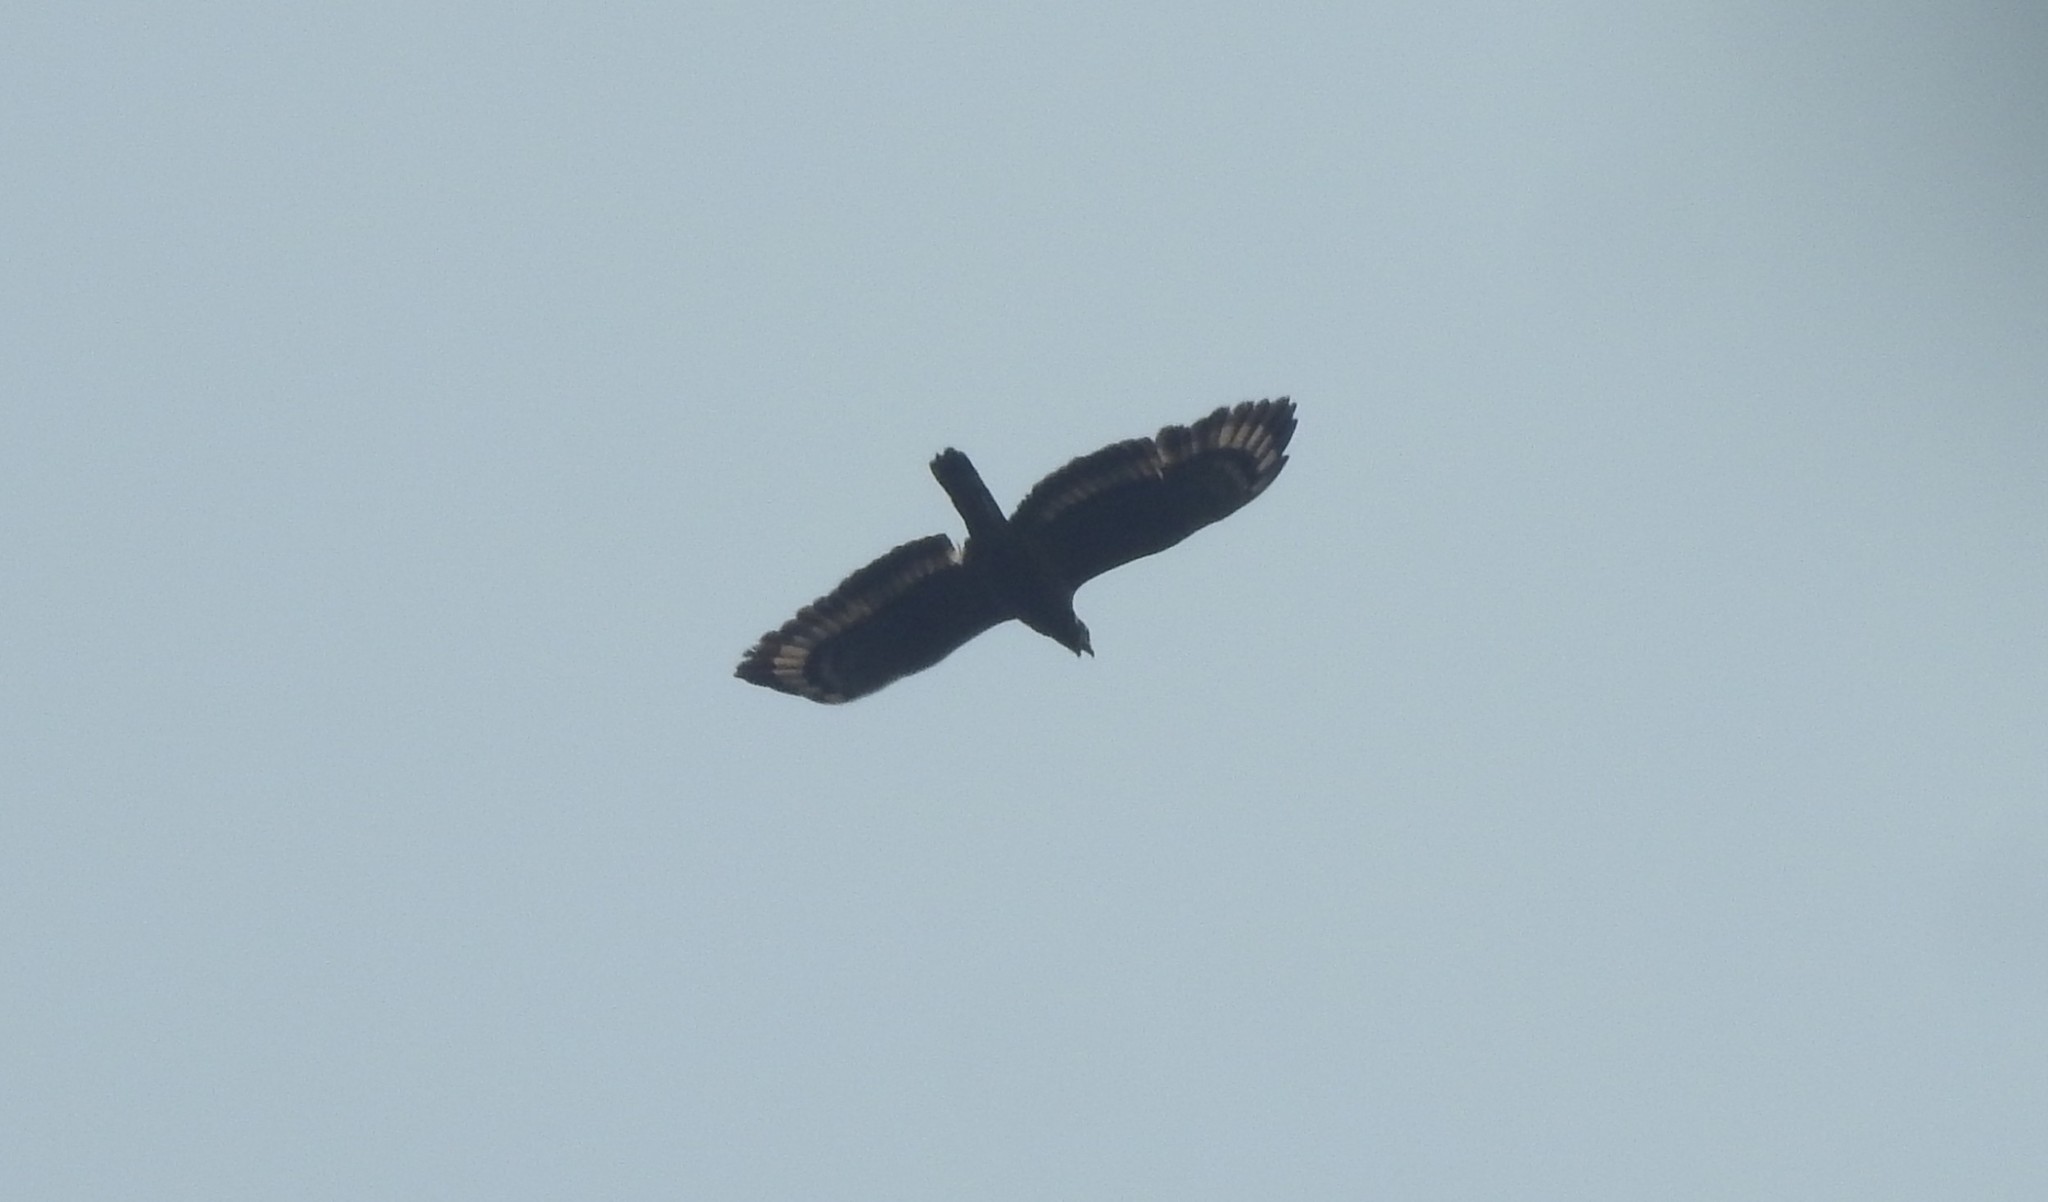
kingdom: Animalia
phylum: Chordata
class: Aves
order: Accipitriformes
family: Accipitridae
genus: Pernis
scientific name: Pernis ptilorhynchus
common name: Crested honey buzzard
